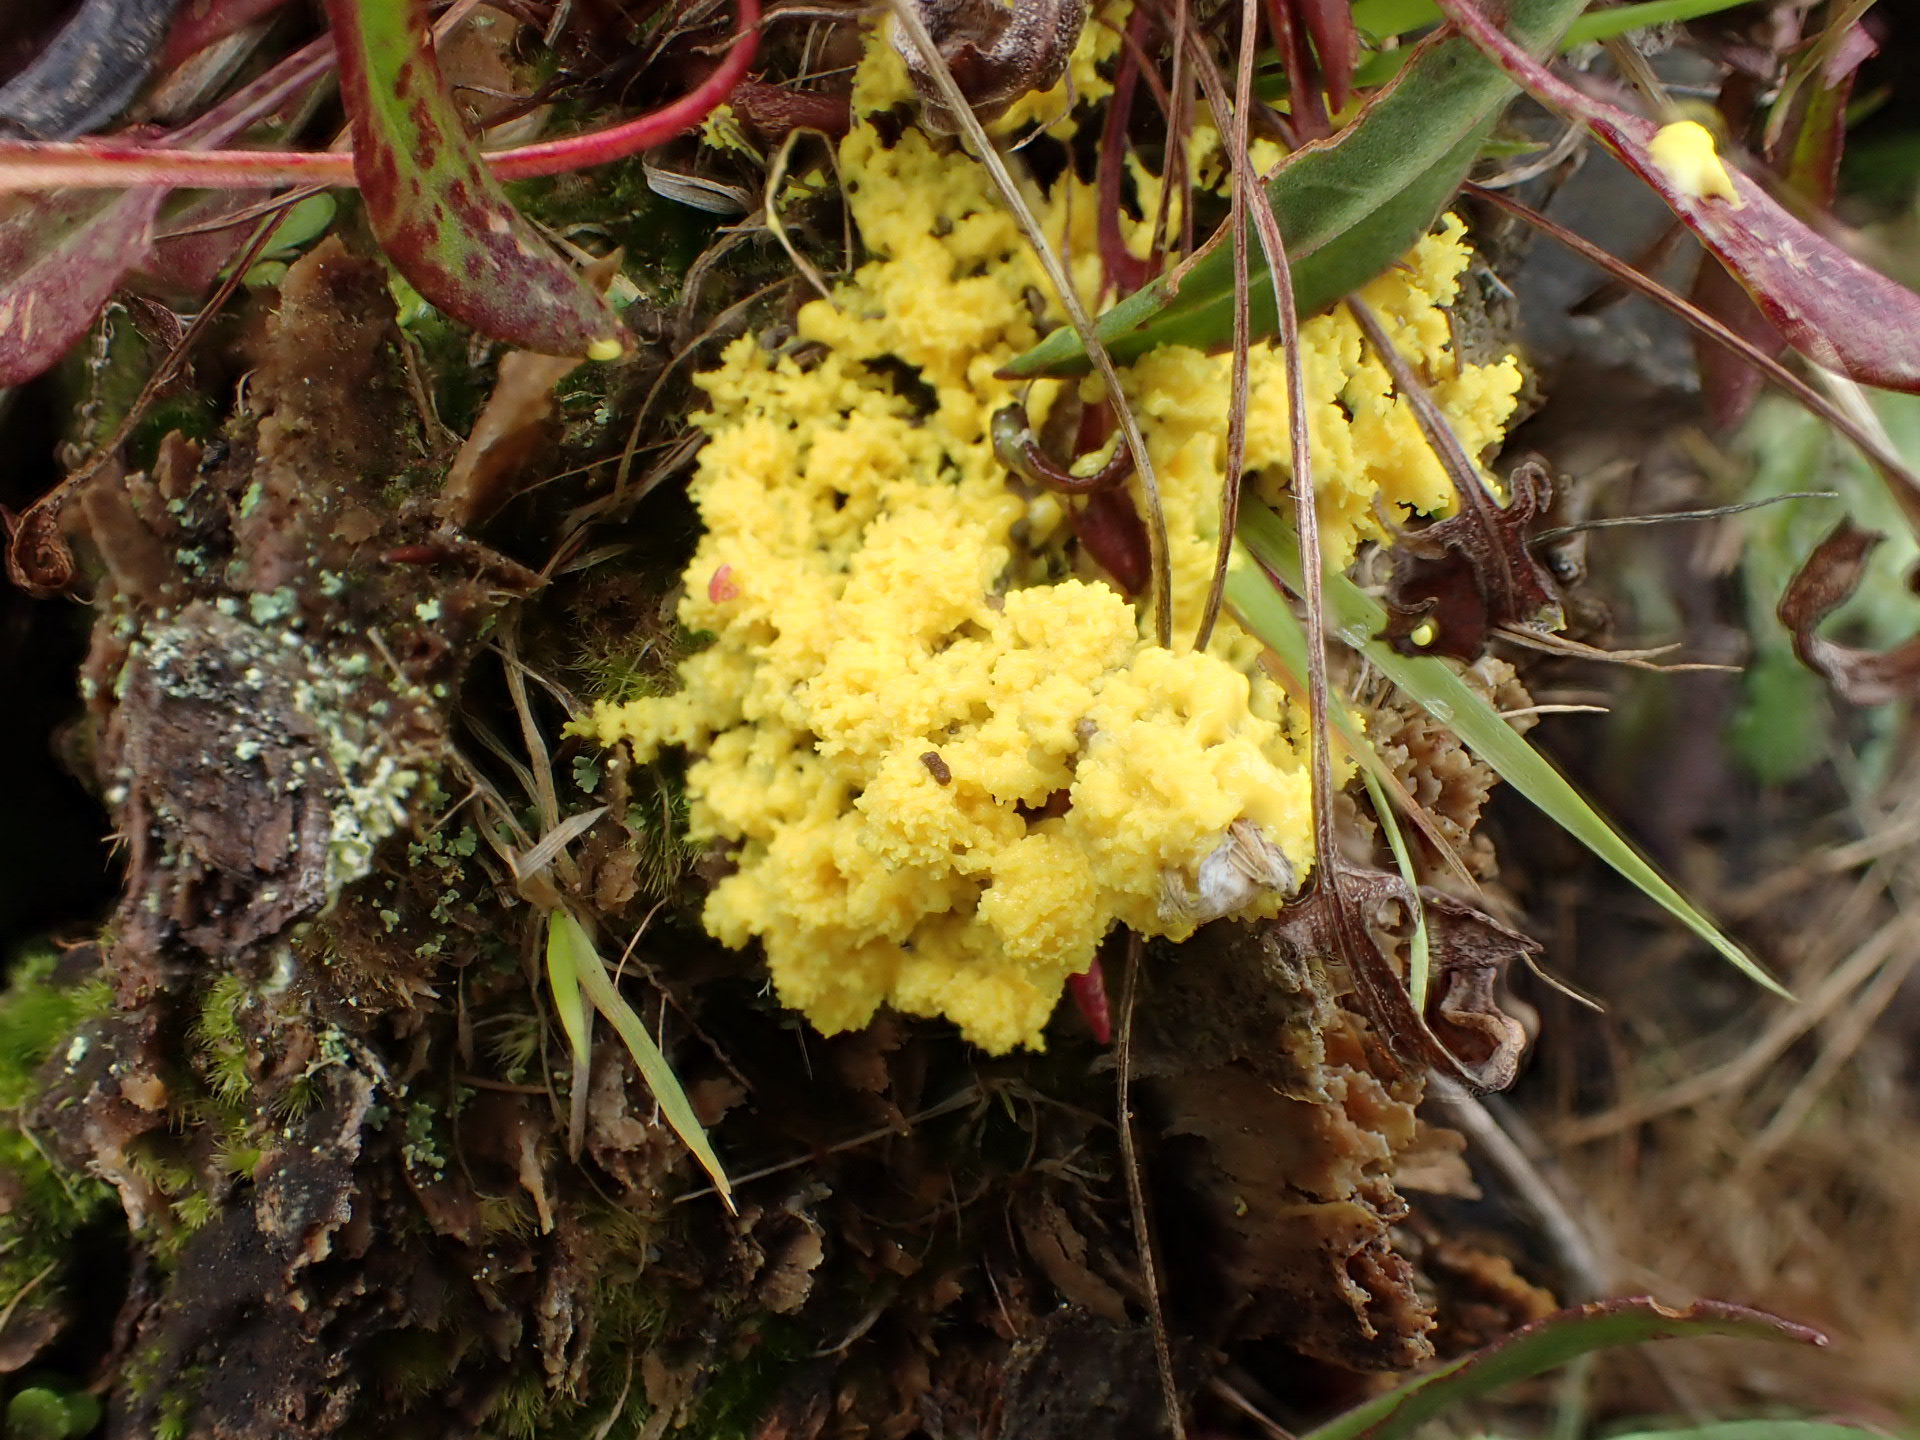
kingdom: Protozoa
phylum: Mycetozoa
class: Myxomycetes
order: Physarales
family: Physaraceae
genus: Fuligo
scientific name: Fuligo septica
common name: Dog vomit slime mold
